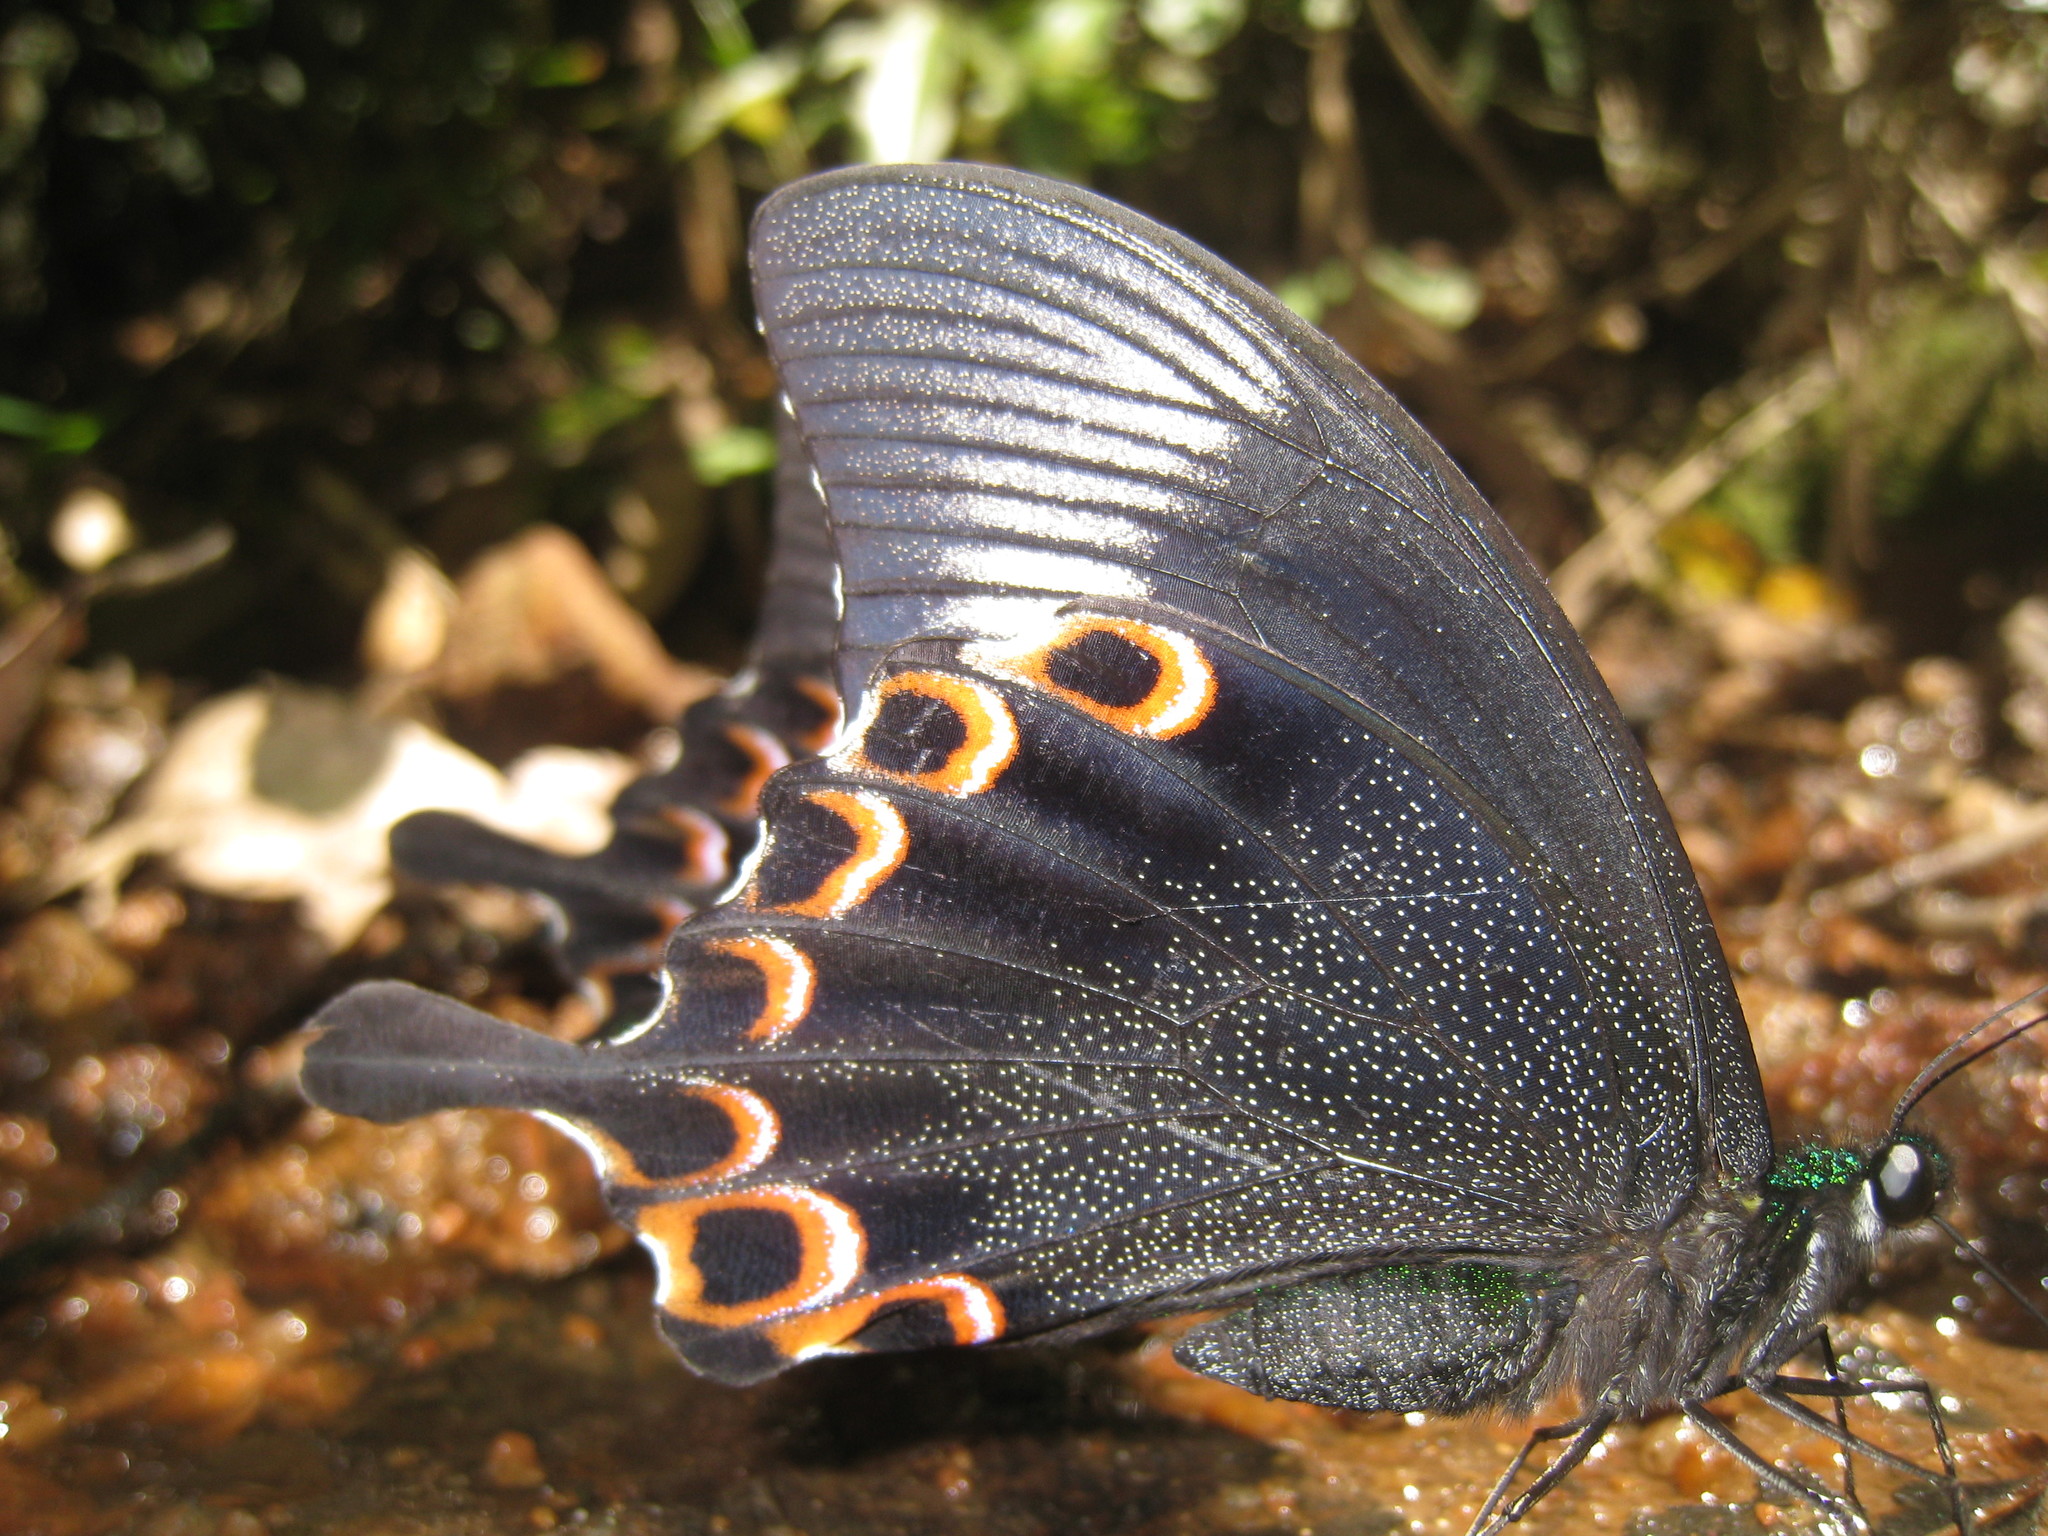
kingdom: Animalia
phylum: Arthropoda
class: Insecta
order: Lepidoptera
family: Papilionidae
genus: Papilio
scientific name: Papilio paris
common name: Paris peacock
